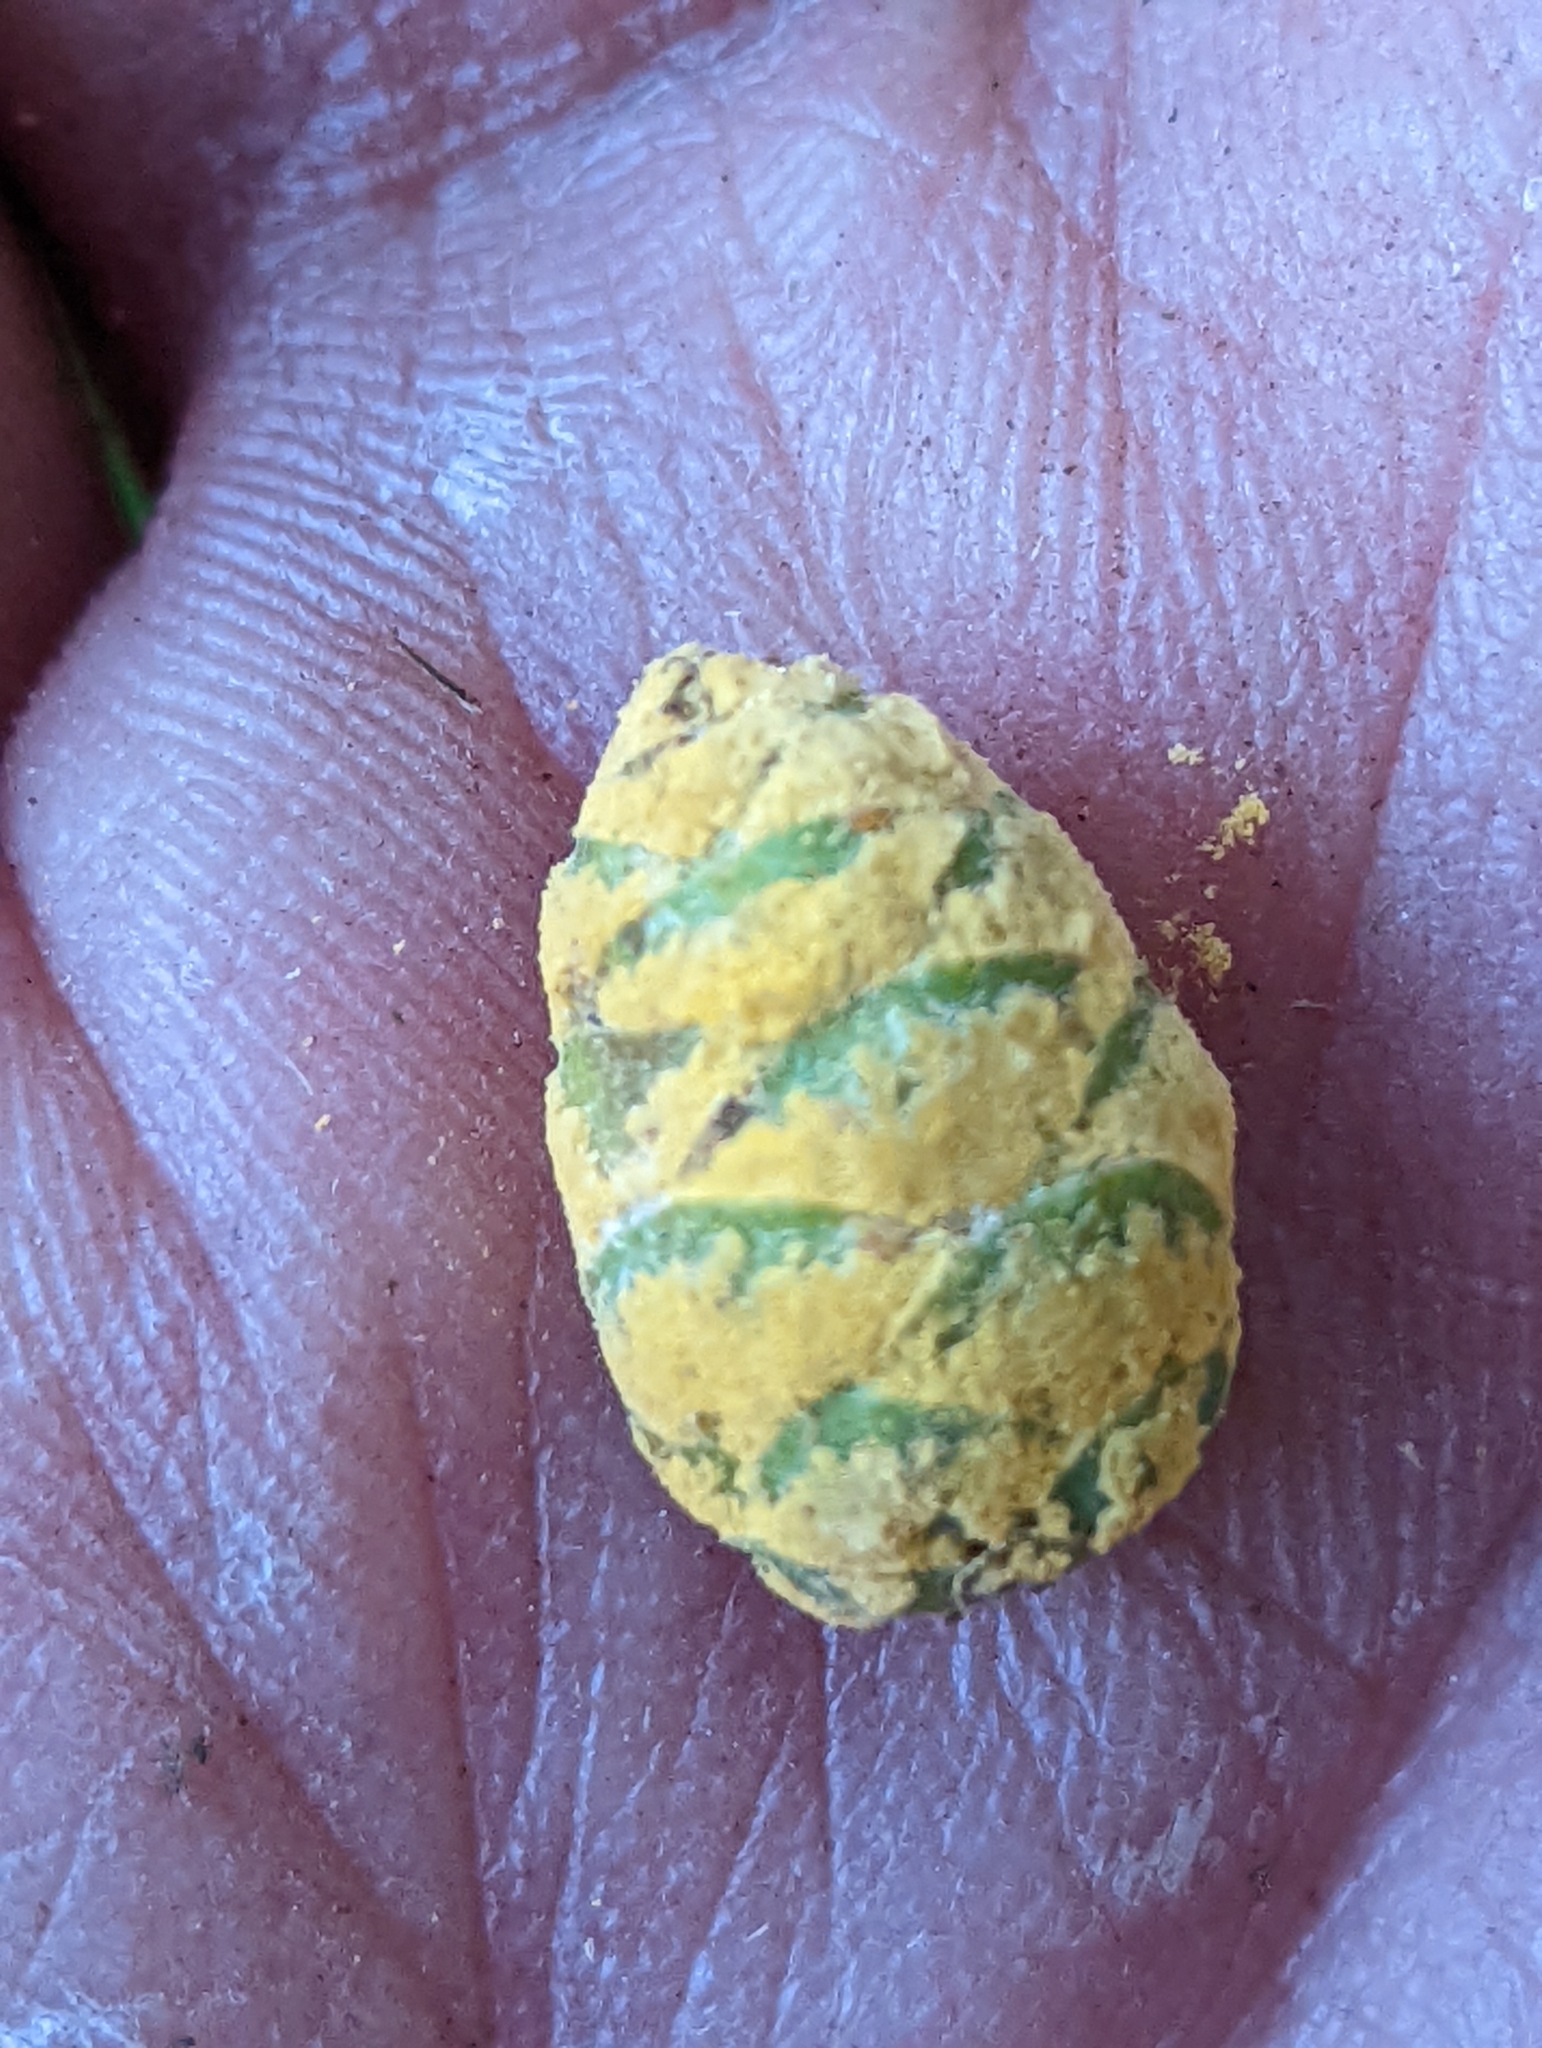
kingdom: Fungi
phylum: Basidiomycota
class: Pucciniomycetes
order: Pucciniales
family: Melampsoraceae
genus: Melampsora
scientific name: Melampsora abietis-canadensis
